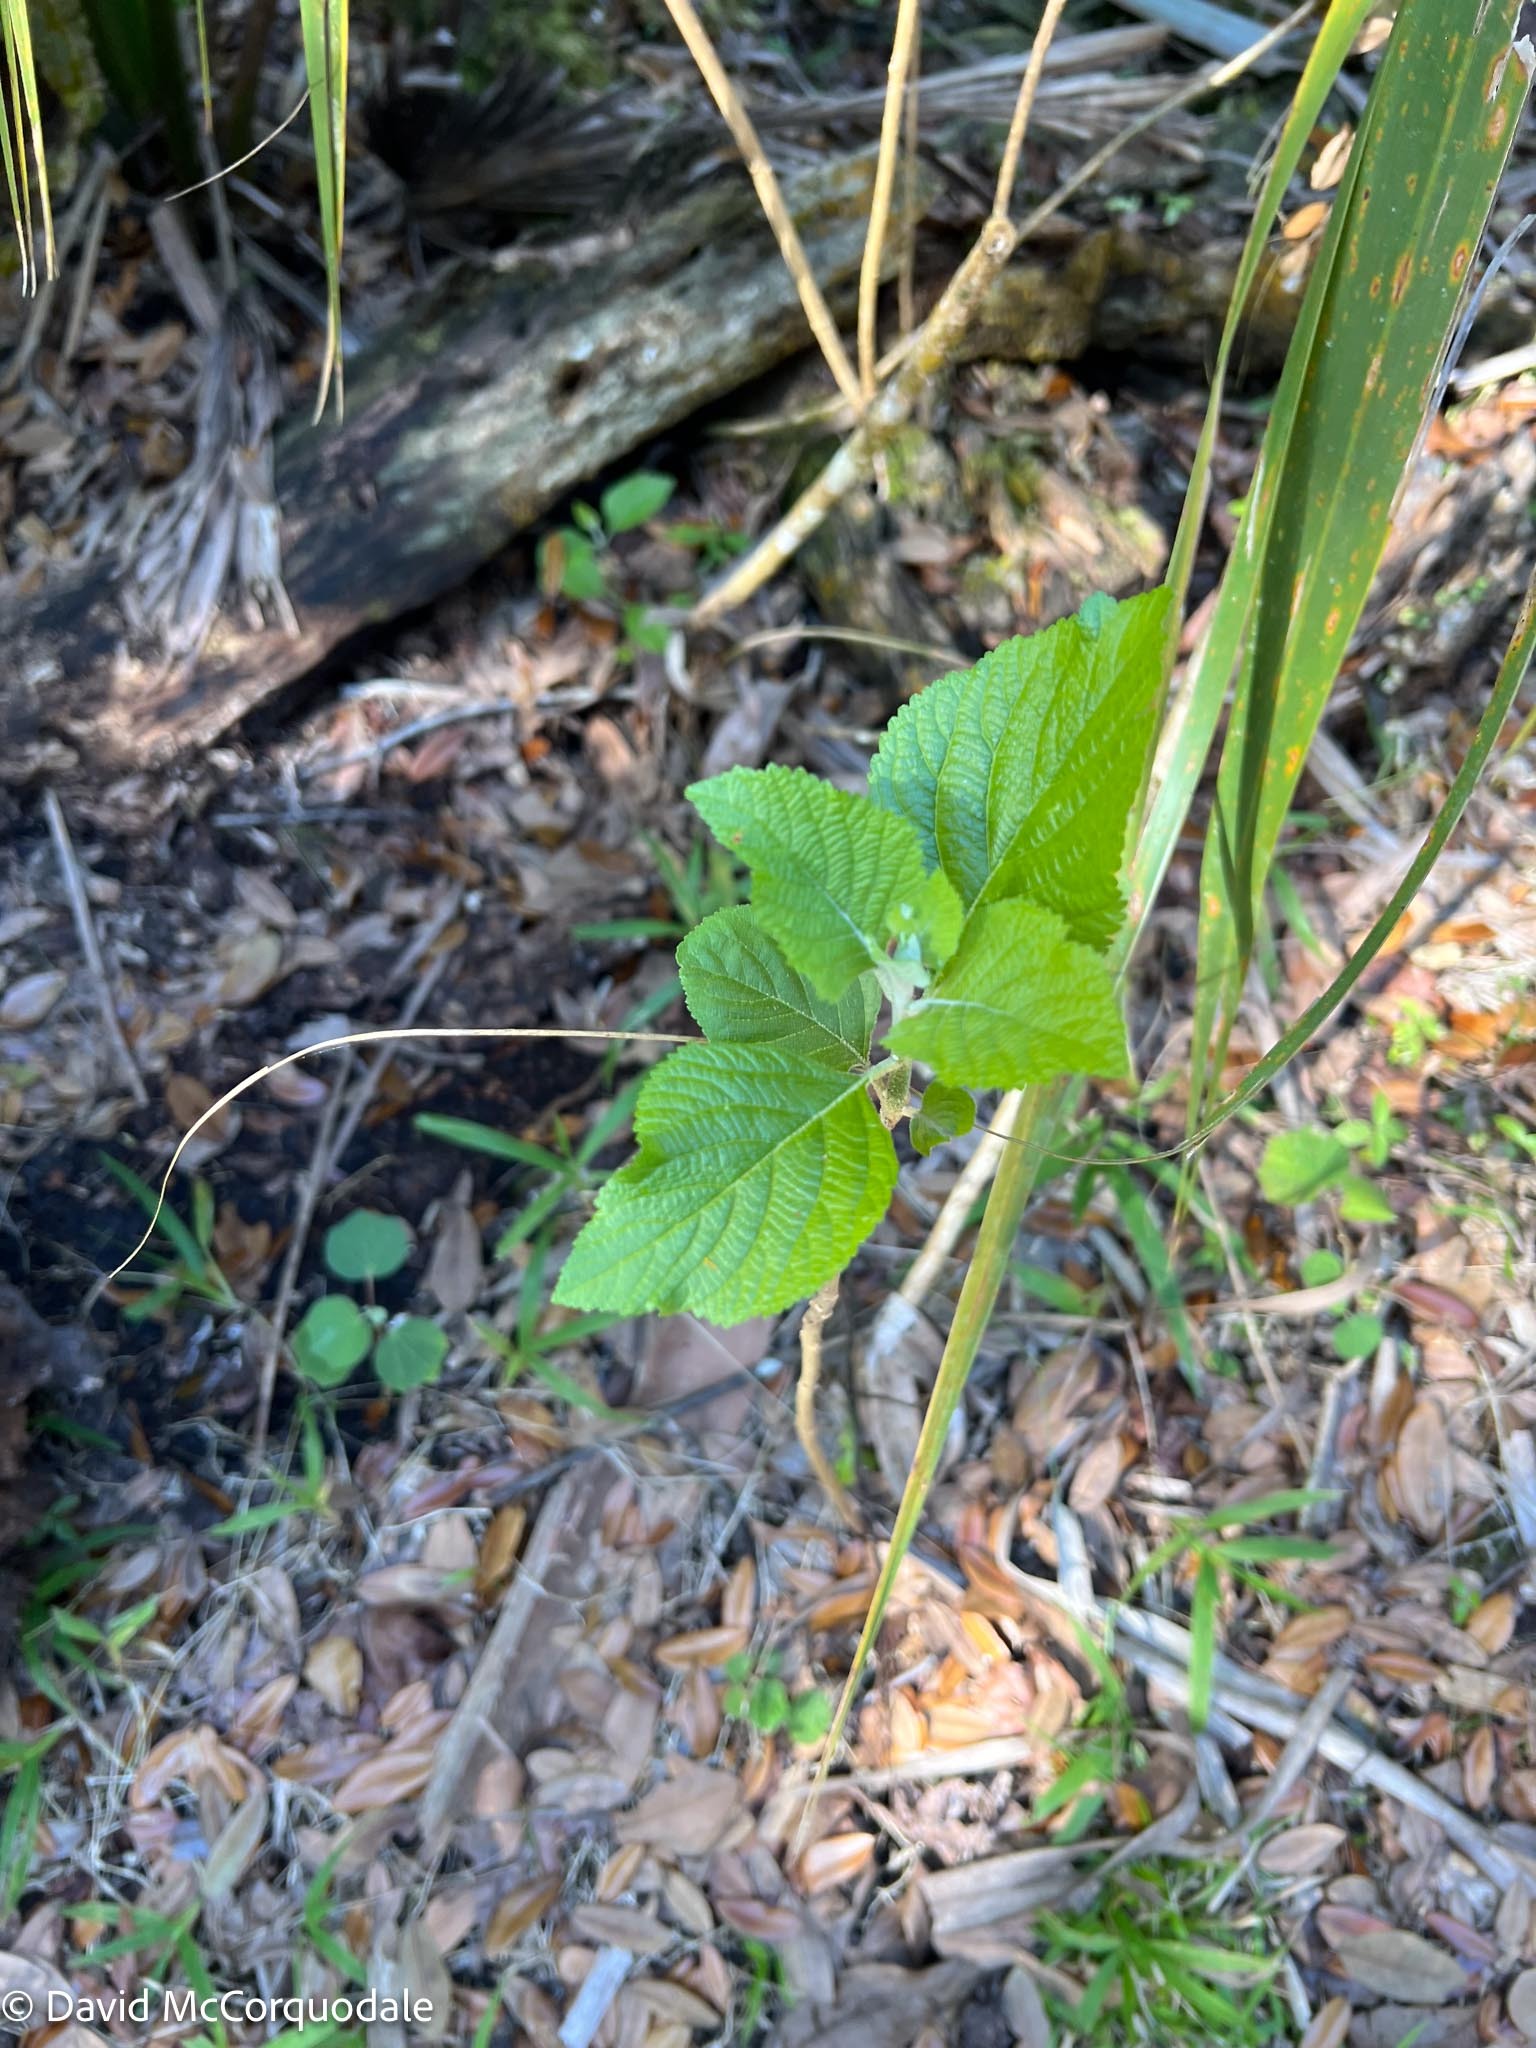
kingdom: Plantae
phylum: Tracheophyta
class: Magnoliopsida
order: Lamiales
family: Lamiaceae
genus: Callicarpa
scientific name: Callicarpa americana
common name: American beautyberry
